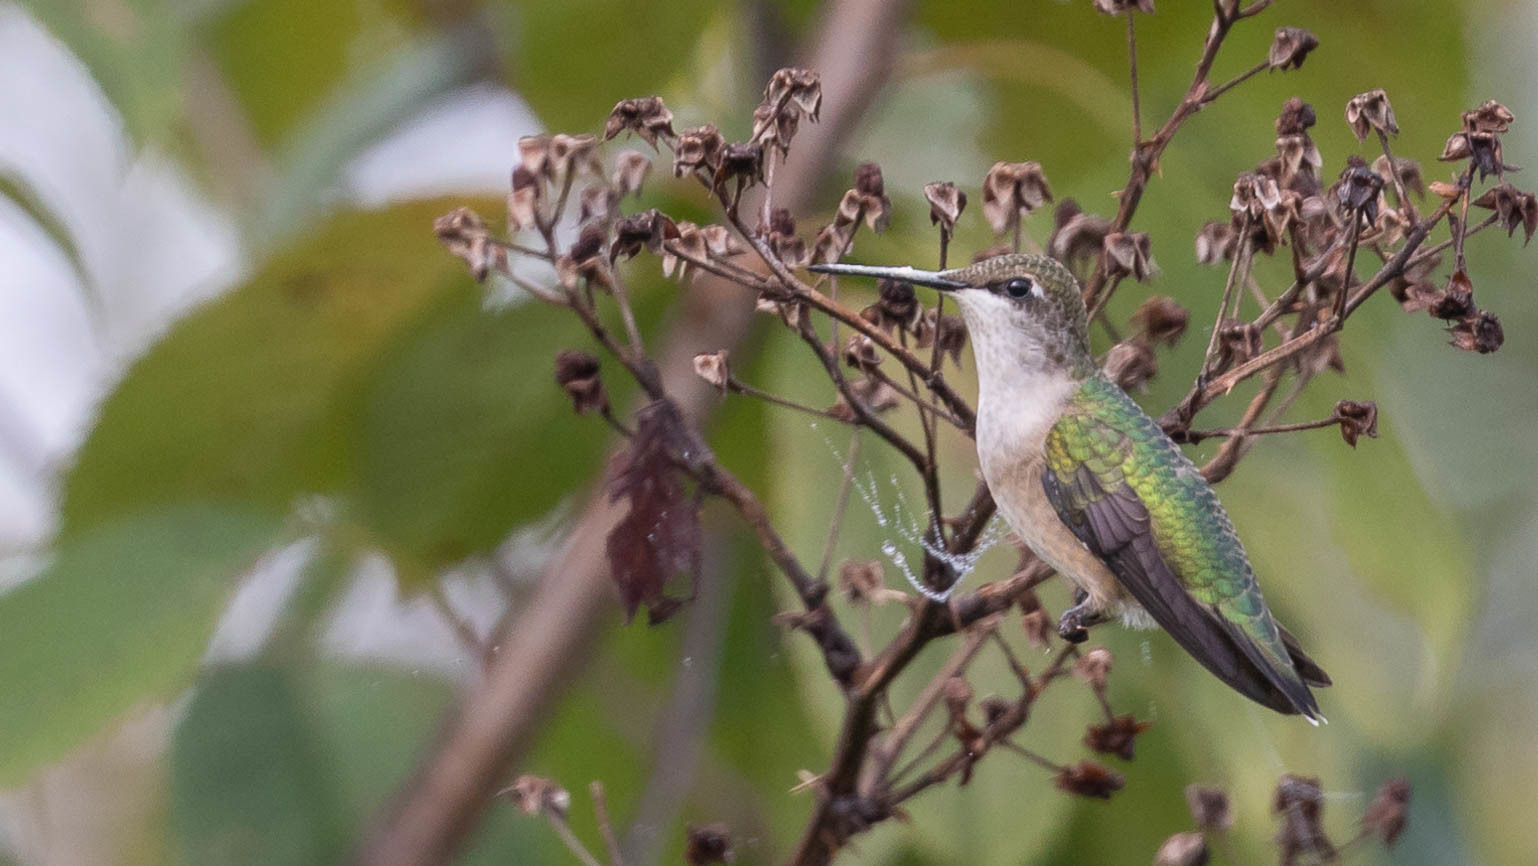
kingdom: Animalia
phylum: Chordata
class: Aves
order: Apodiformes
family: Trochilidae
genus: Archilochus
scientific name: Archilochus colubris
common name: Ruby-throated hummingbird
